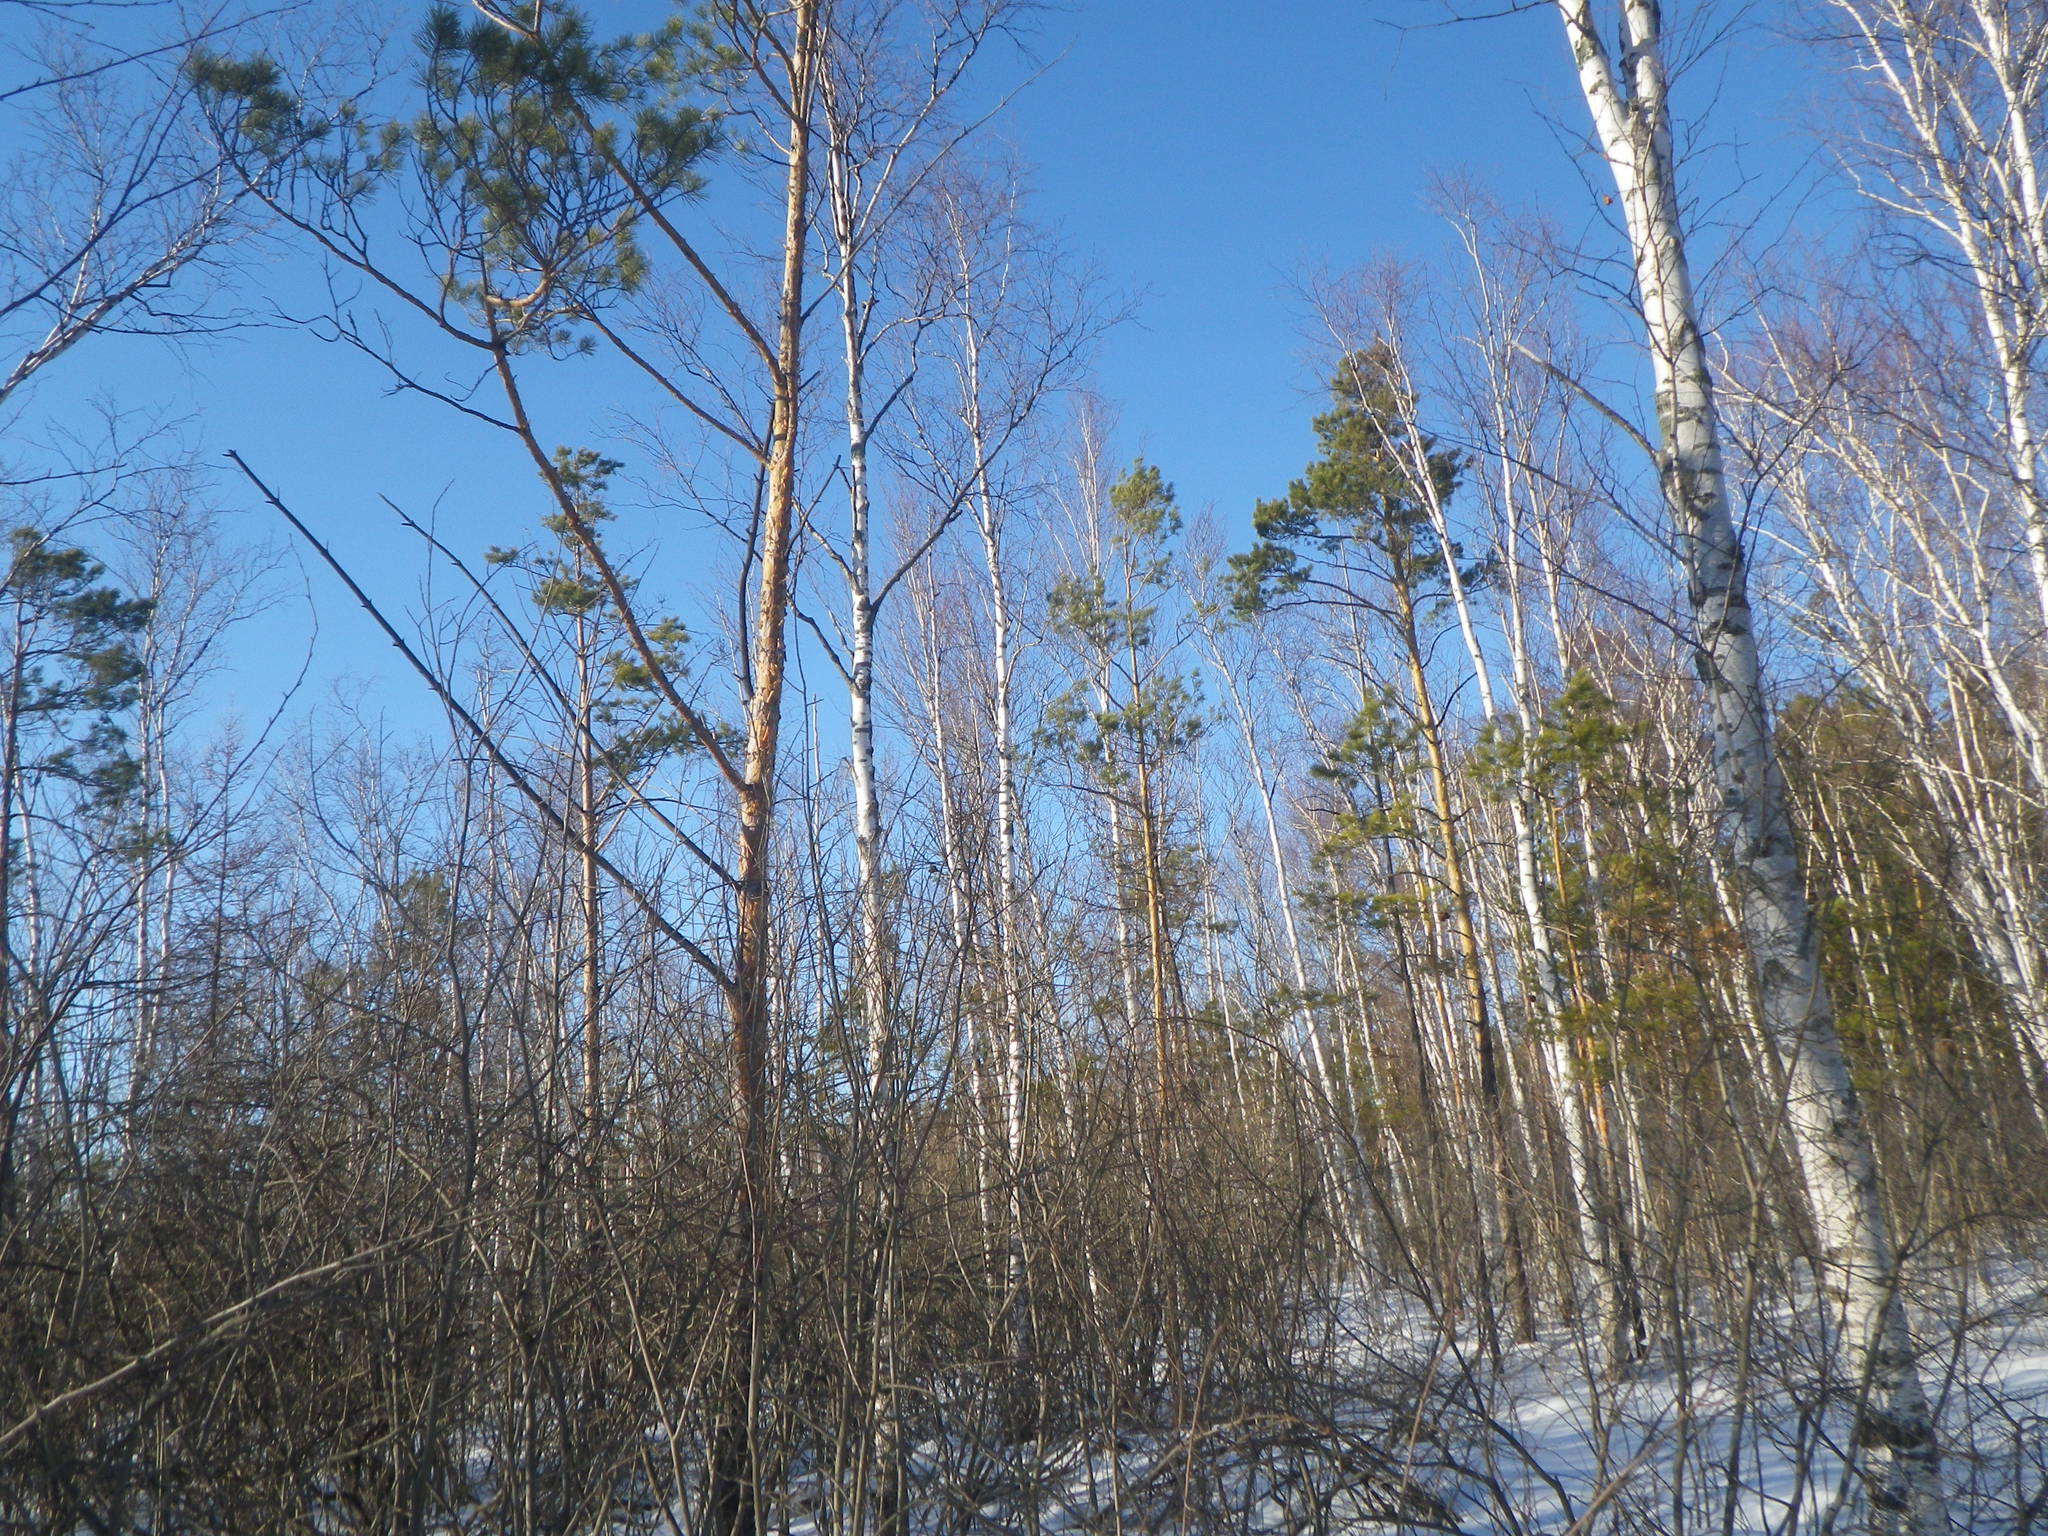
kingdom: Plantae
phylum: Tracheophyta
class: Pinopsida
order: Pinales
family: Pinaceae
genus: Pinus
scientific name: Pinus sylvestris
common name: Scots pine
